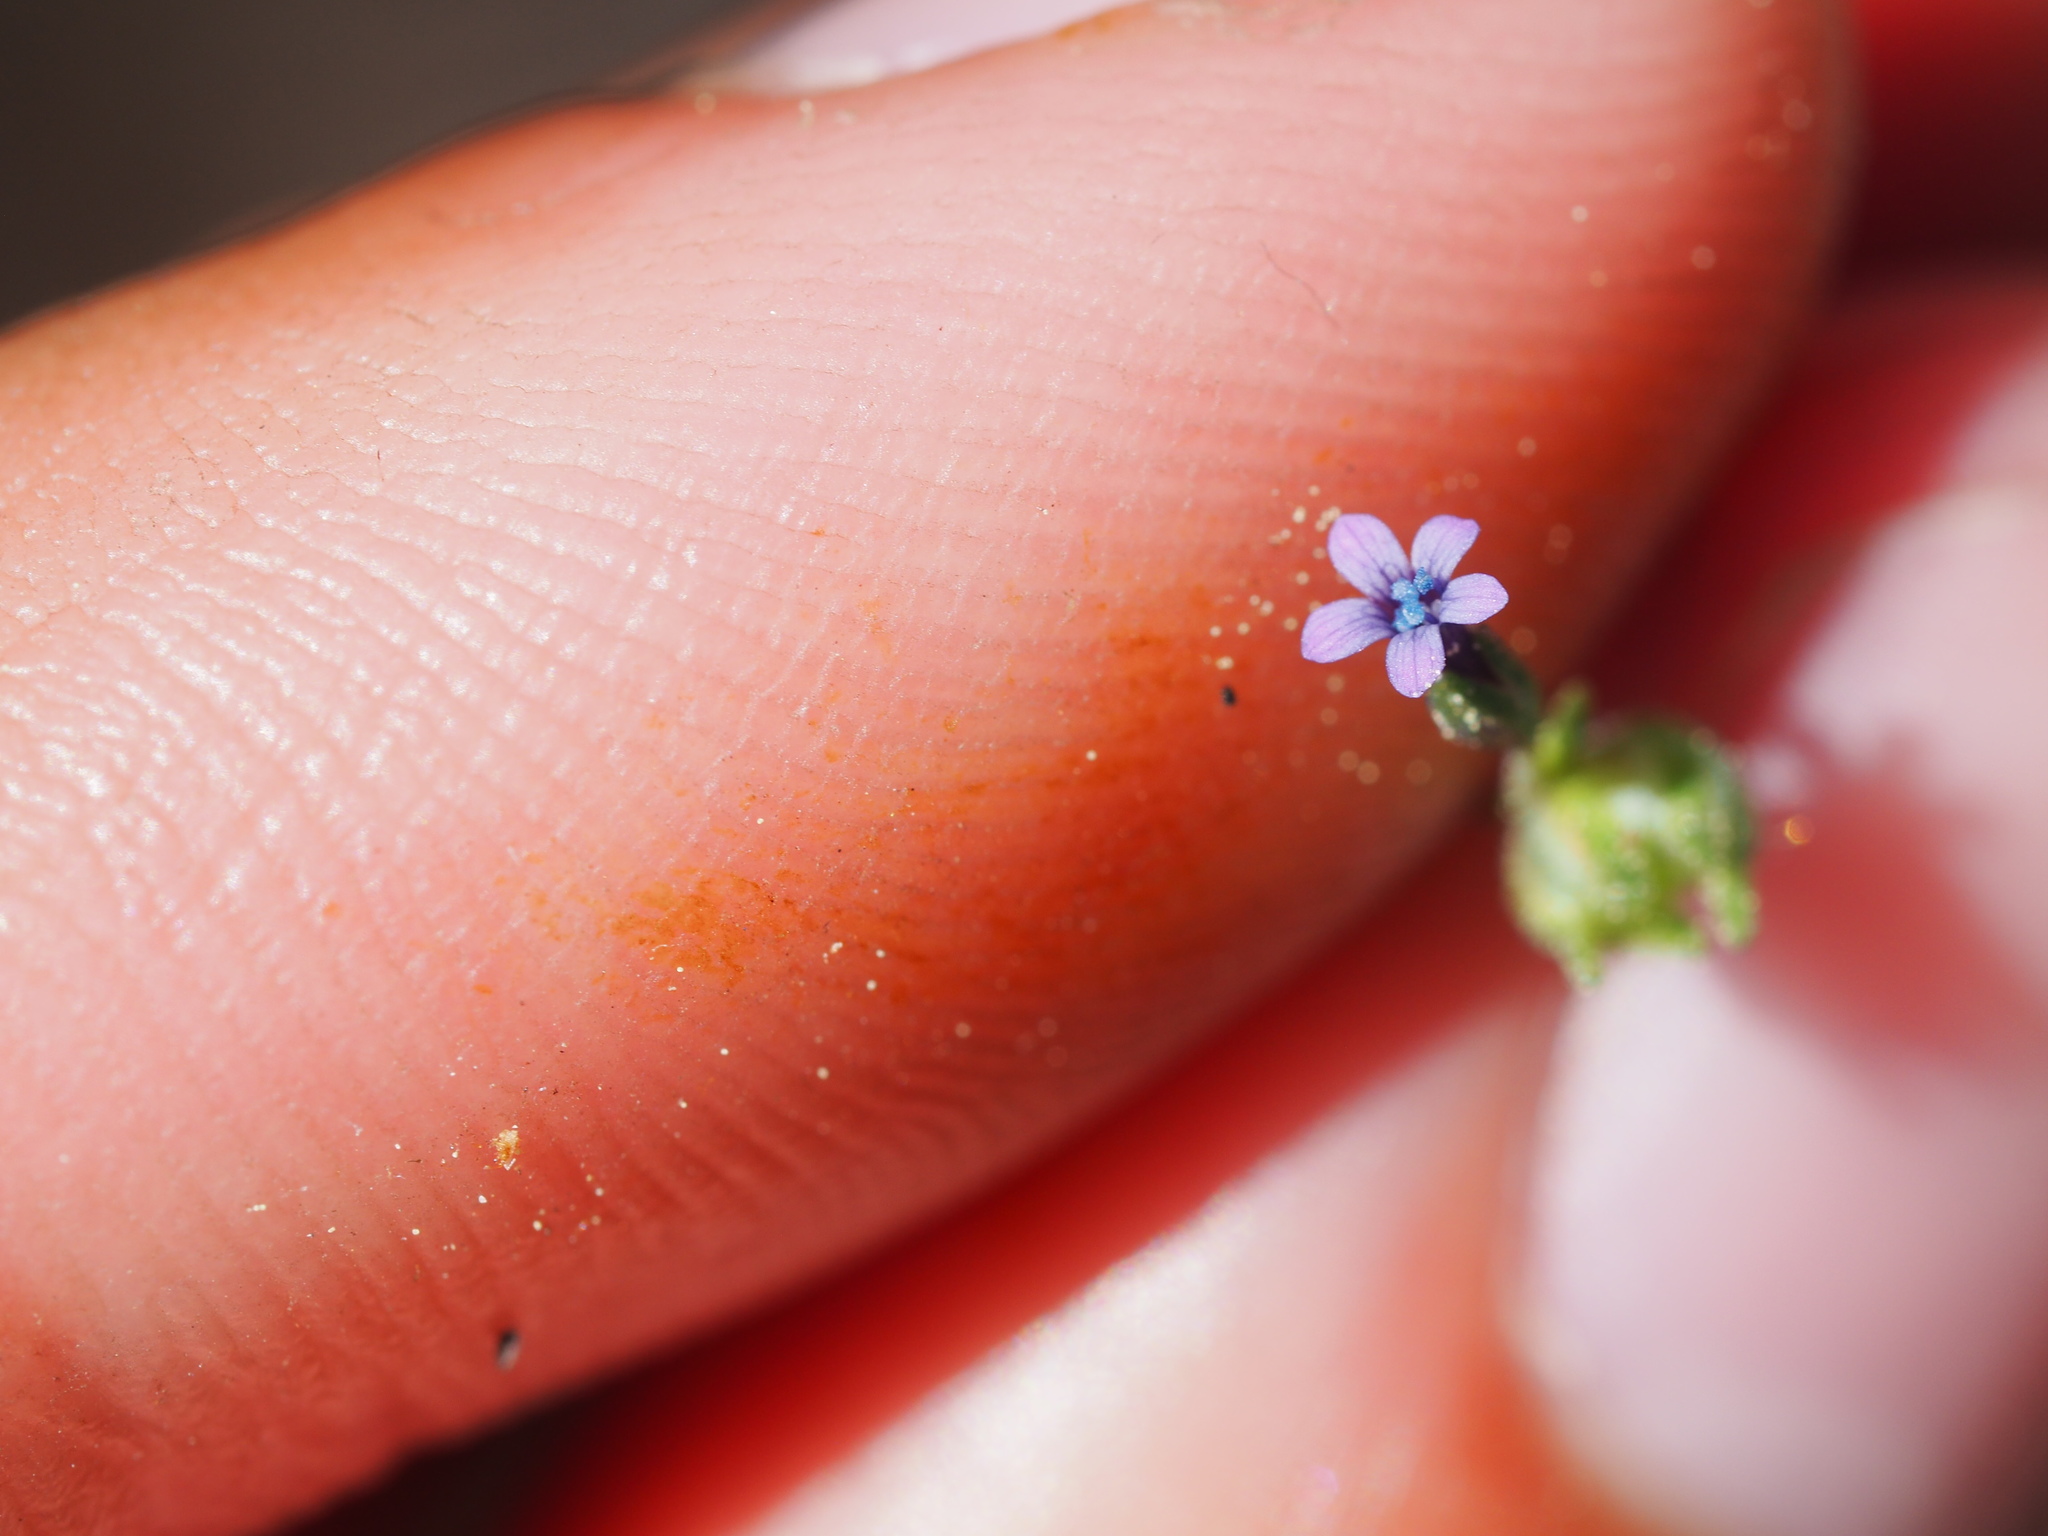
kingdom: Plantae
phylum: Tracheophyta
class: Magnoliopsida
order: Ericales
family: Polemoniaceae
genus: Allophyllum
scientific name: Allophyllum gilioides
